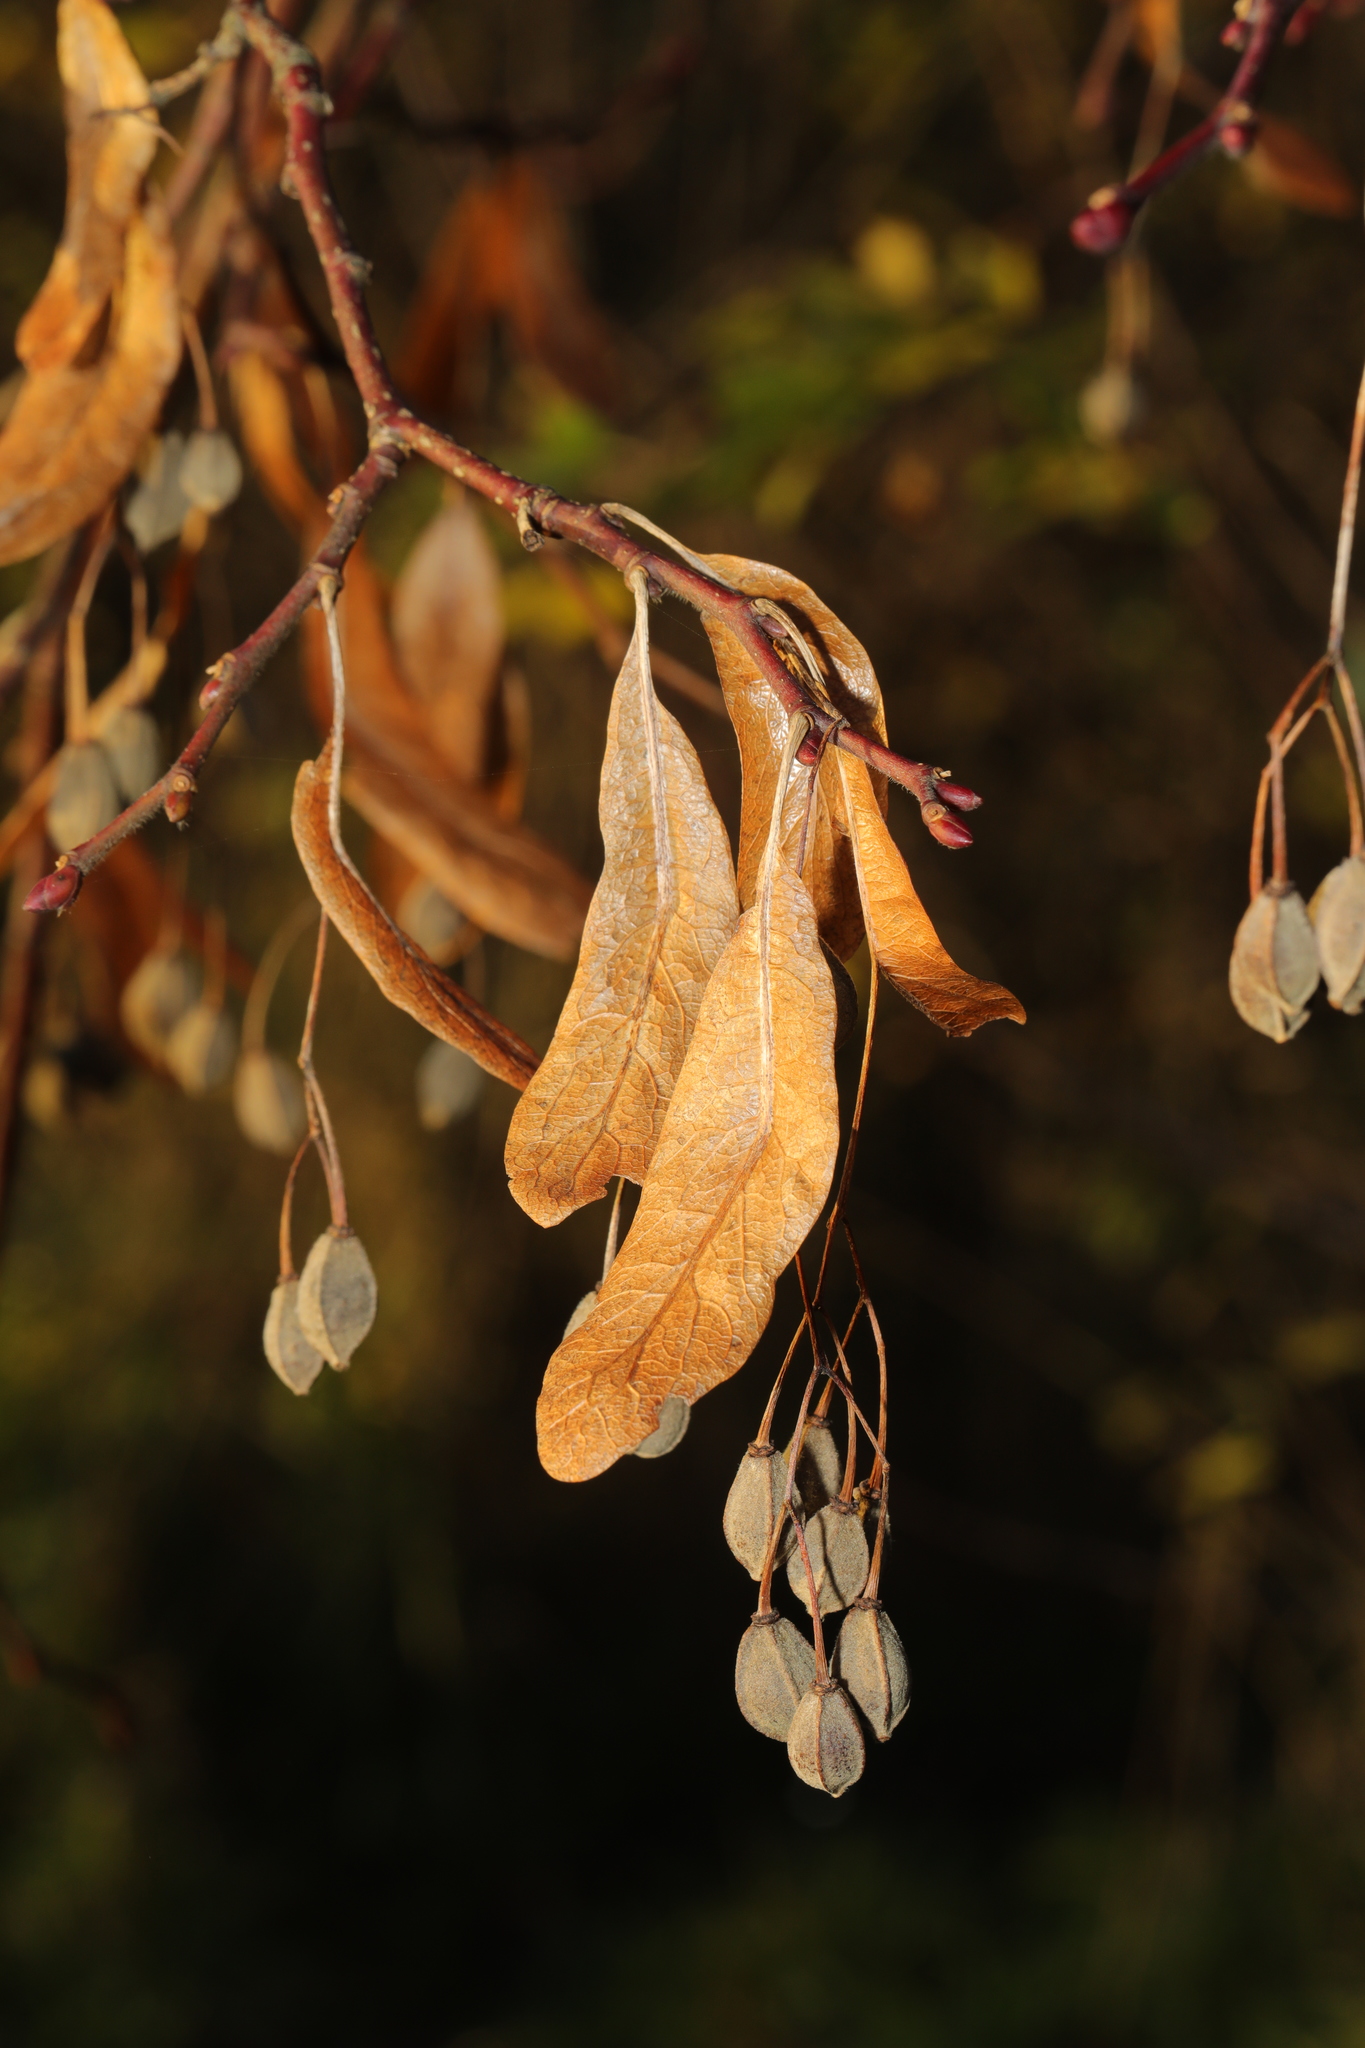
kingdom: Plantae
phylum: Tracheophyta
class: Magnoliopsida
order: Malvales
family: Malvaceae
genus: Tilia
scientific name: Tilia europaea
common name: European linden
